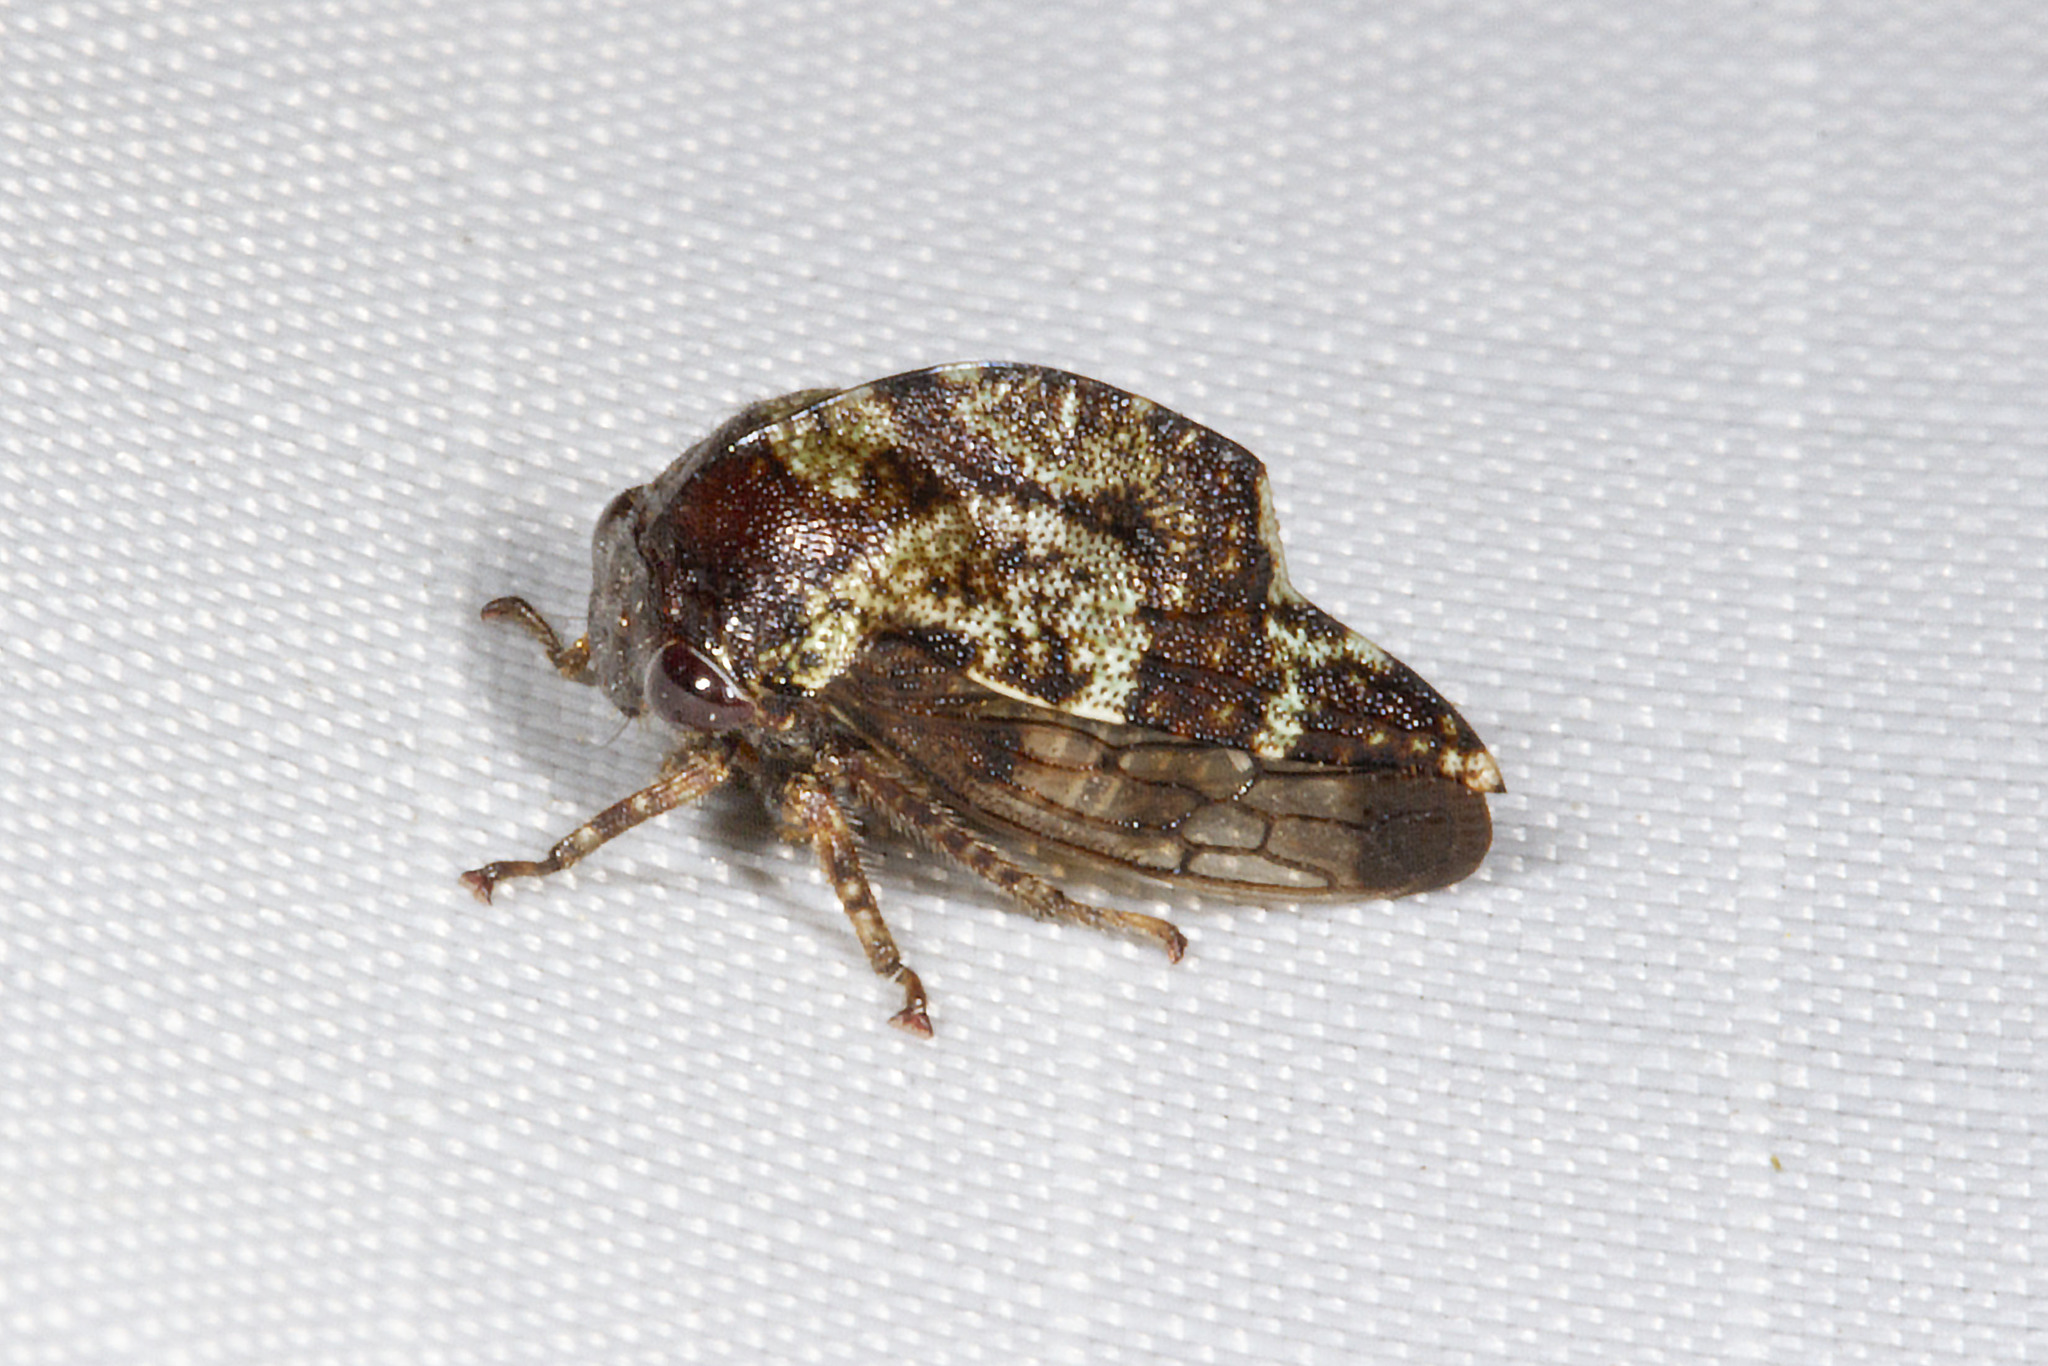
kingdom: Animalia
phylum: Arthropoda
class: Insecta
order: Hemiptera
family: Membracidae
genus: Telamona
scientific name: Telamona
